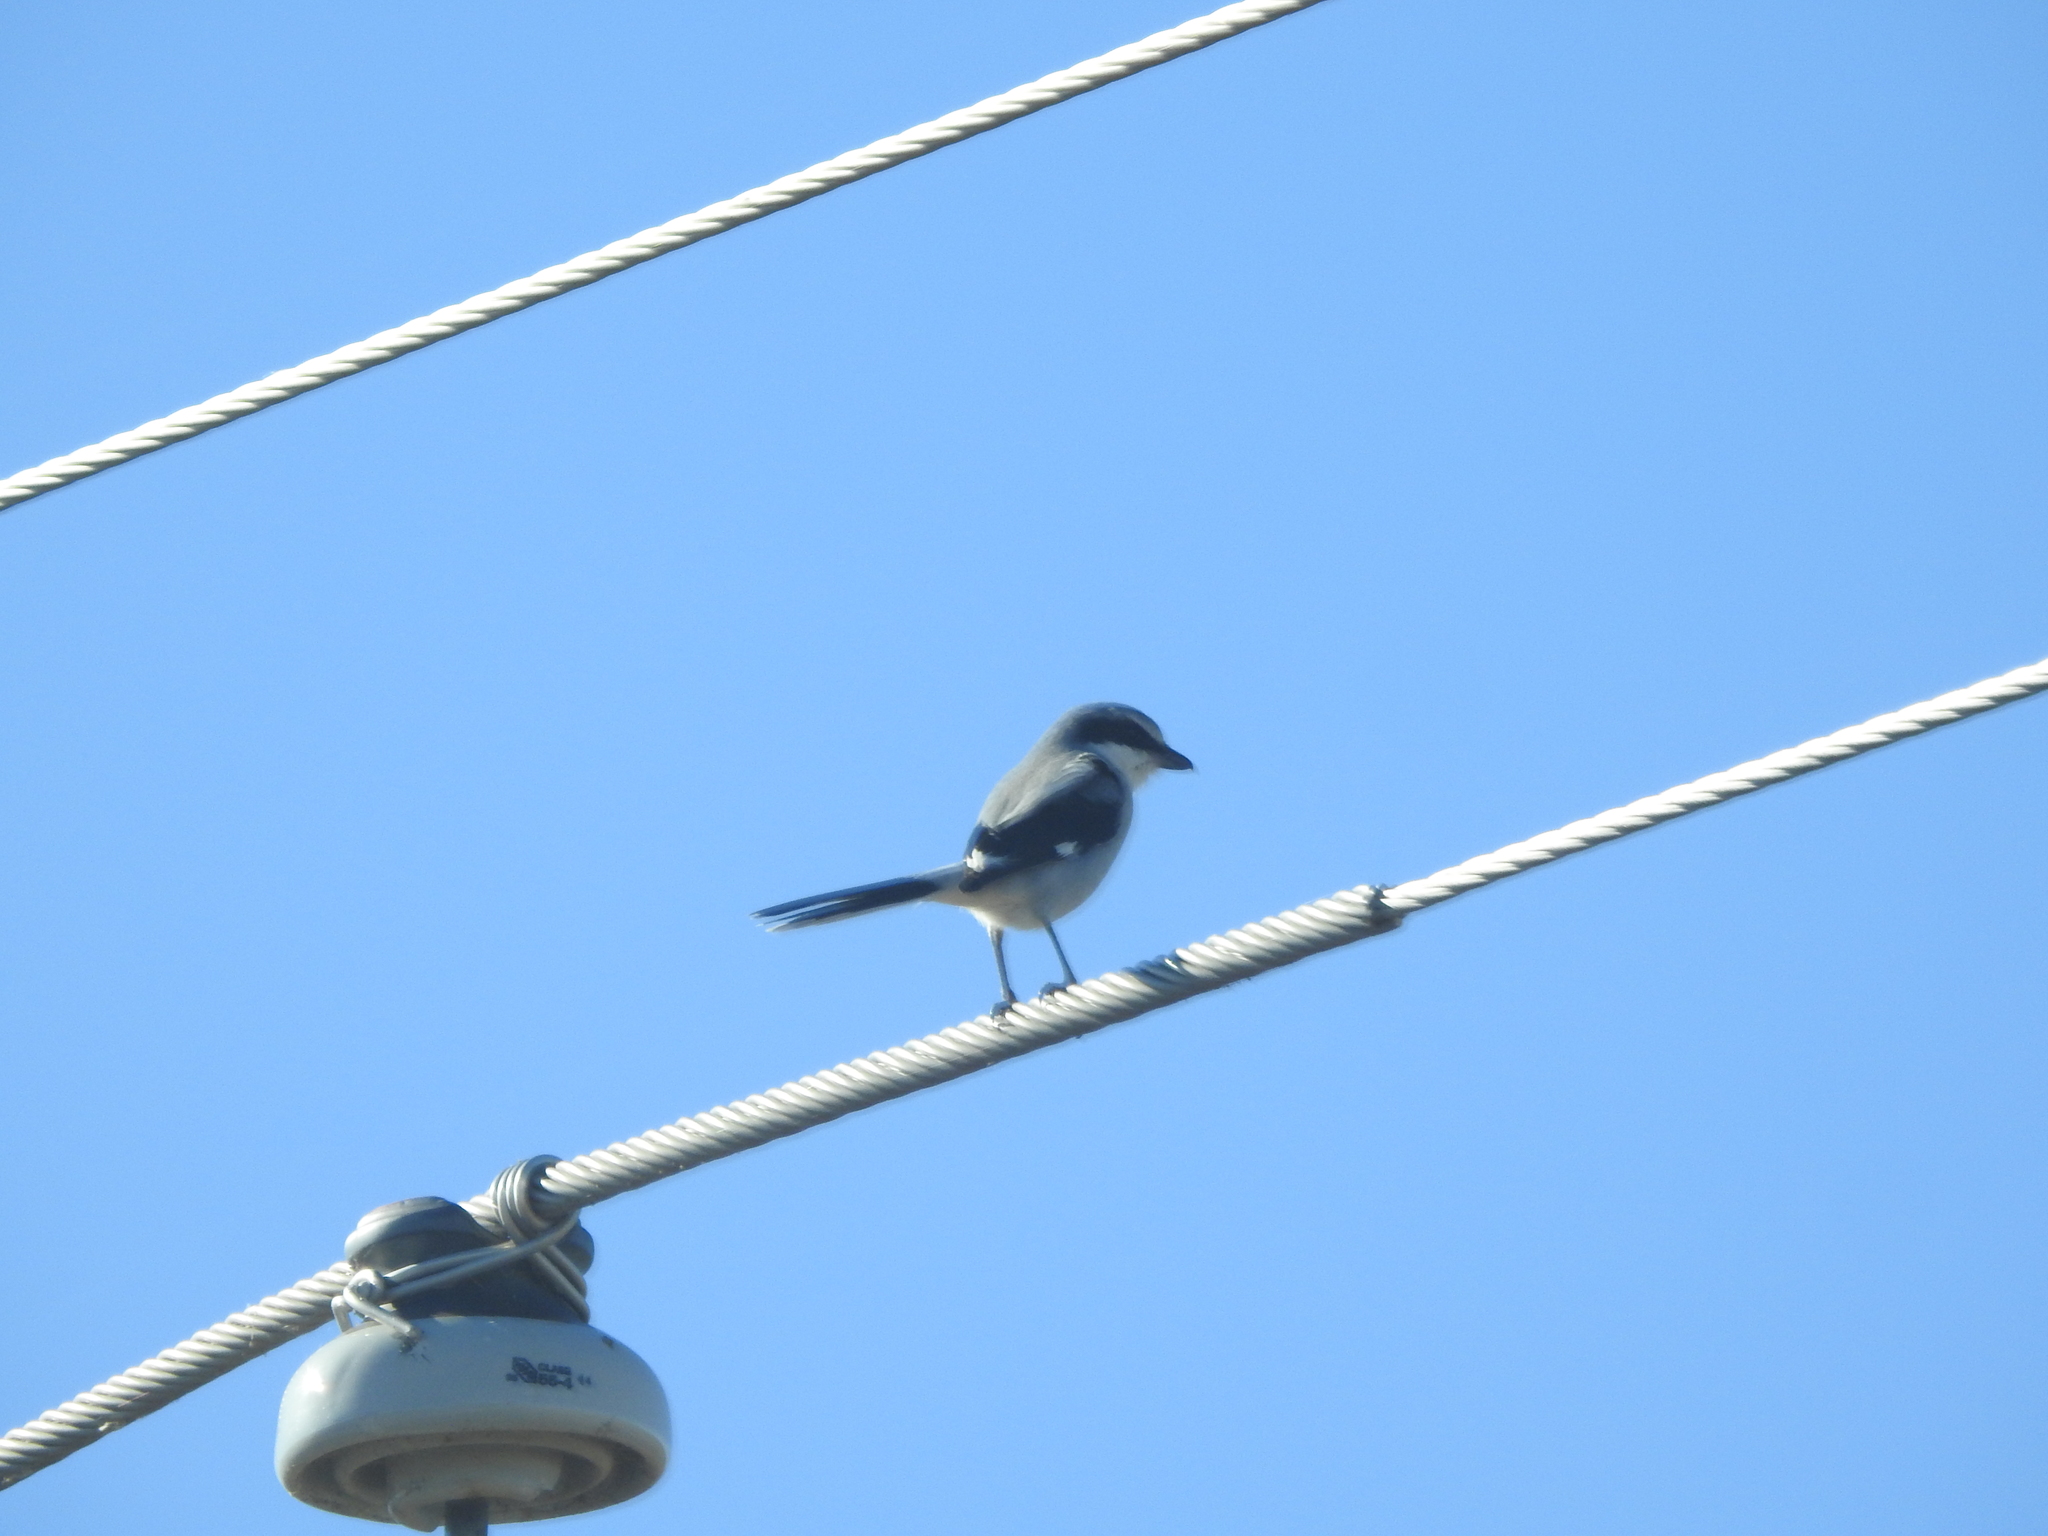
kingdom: Animalia
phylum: Chordata
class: Aves
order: Passeriformes
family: Laniidae
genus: Lanius
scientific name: Lanius ludovicianus
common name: Loggerhead shrike
